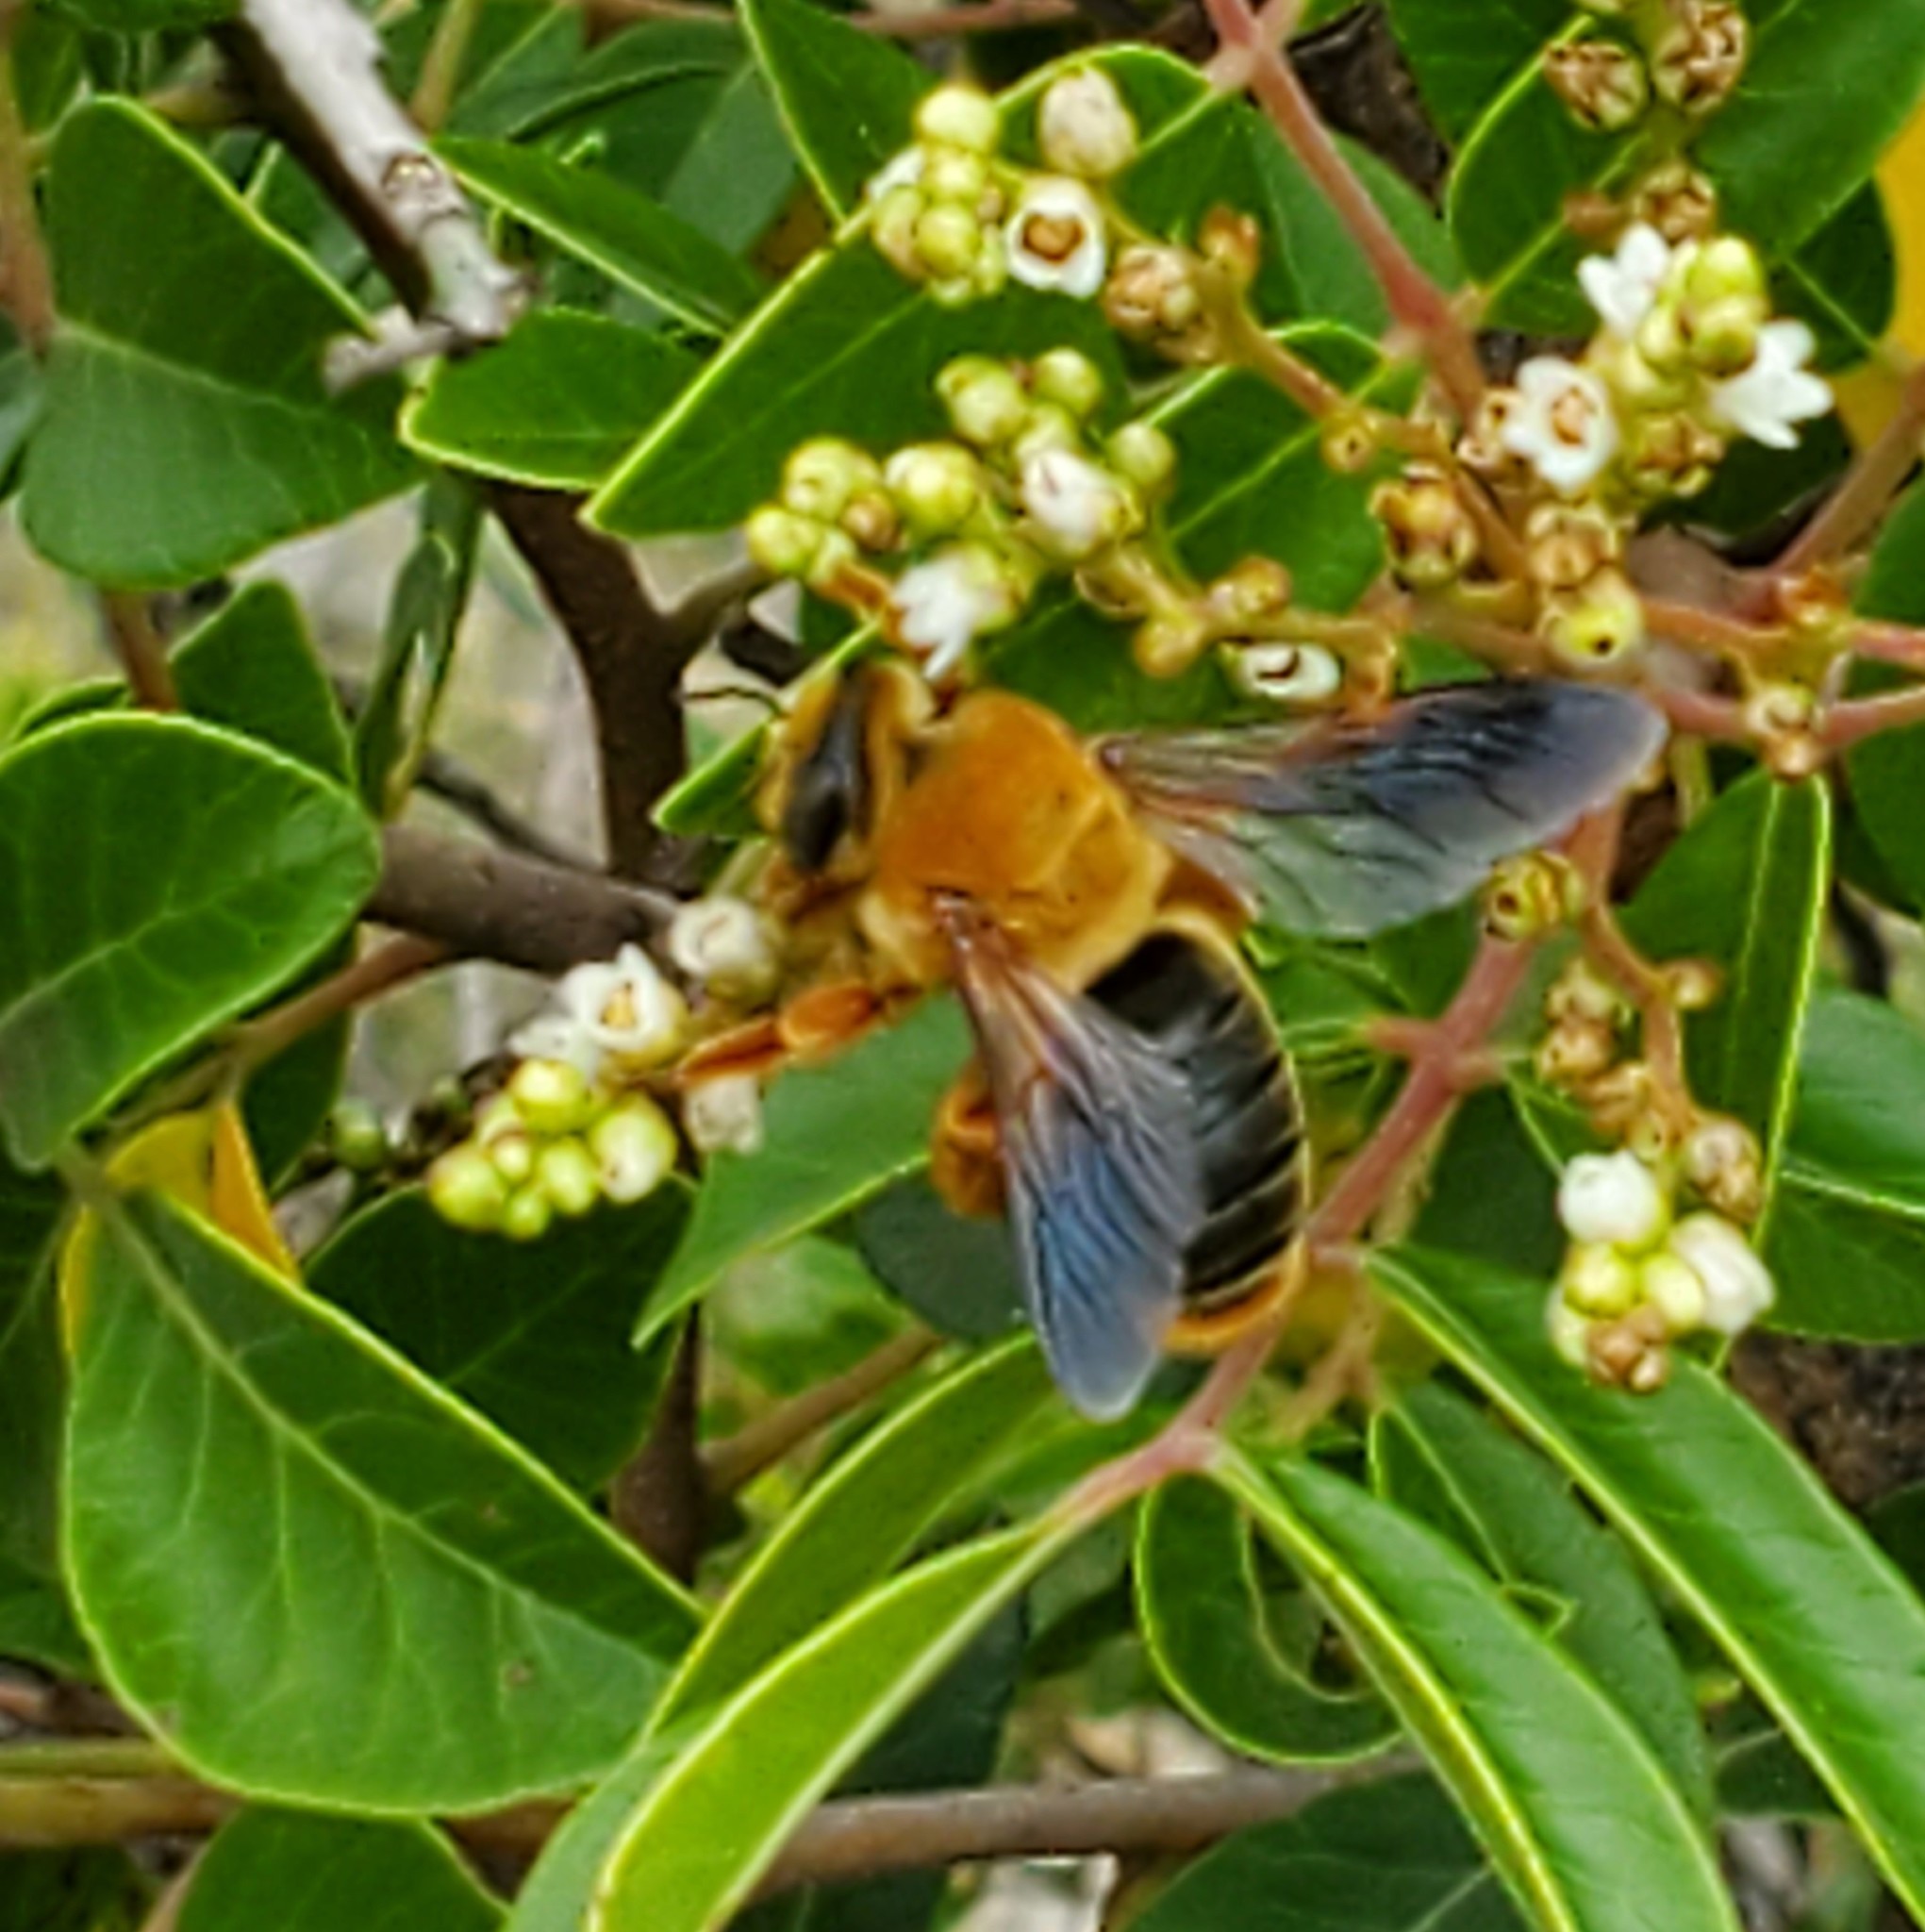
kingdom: Animalia
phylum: Arthropoda
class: Insecta
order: Hymenoptera
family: Andrenidae
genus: Protoxaea
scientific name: Protoxaea gloriosa
